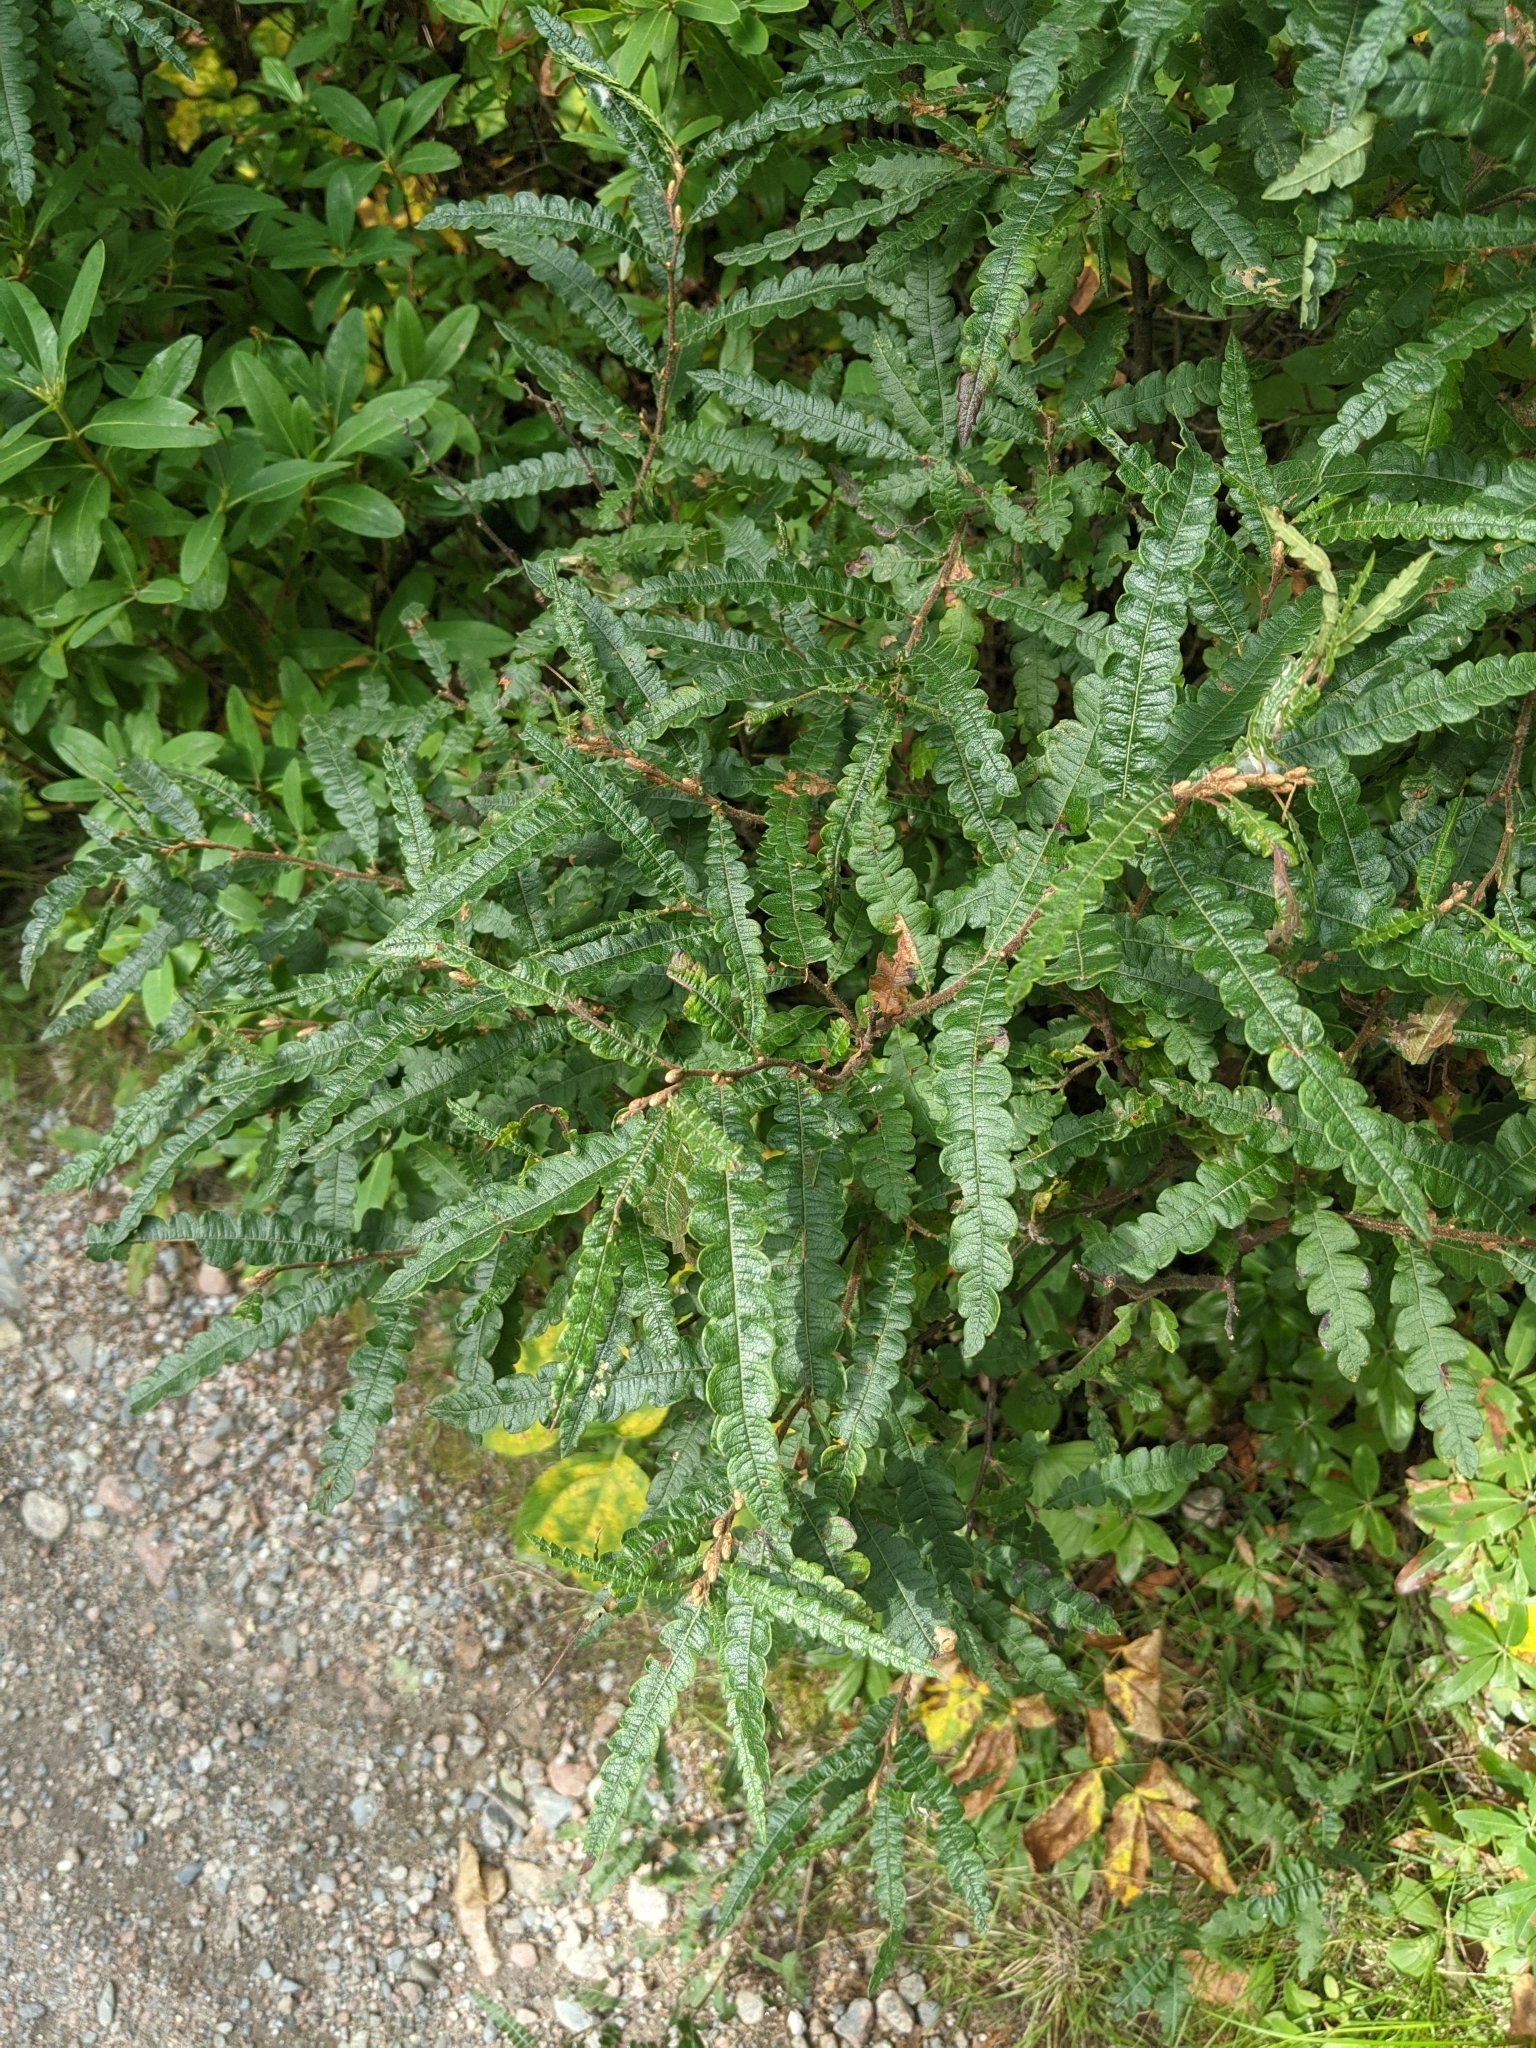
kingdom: Plantae
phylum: Tracheophyta
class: Magnoliopsida
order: Fagales
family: Myricaceae
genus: Comptonia
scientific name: Comptonia peregrina
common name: Sweet-fern
